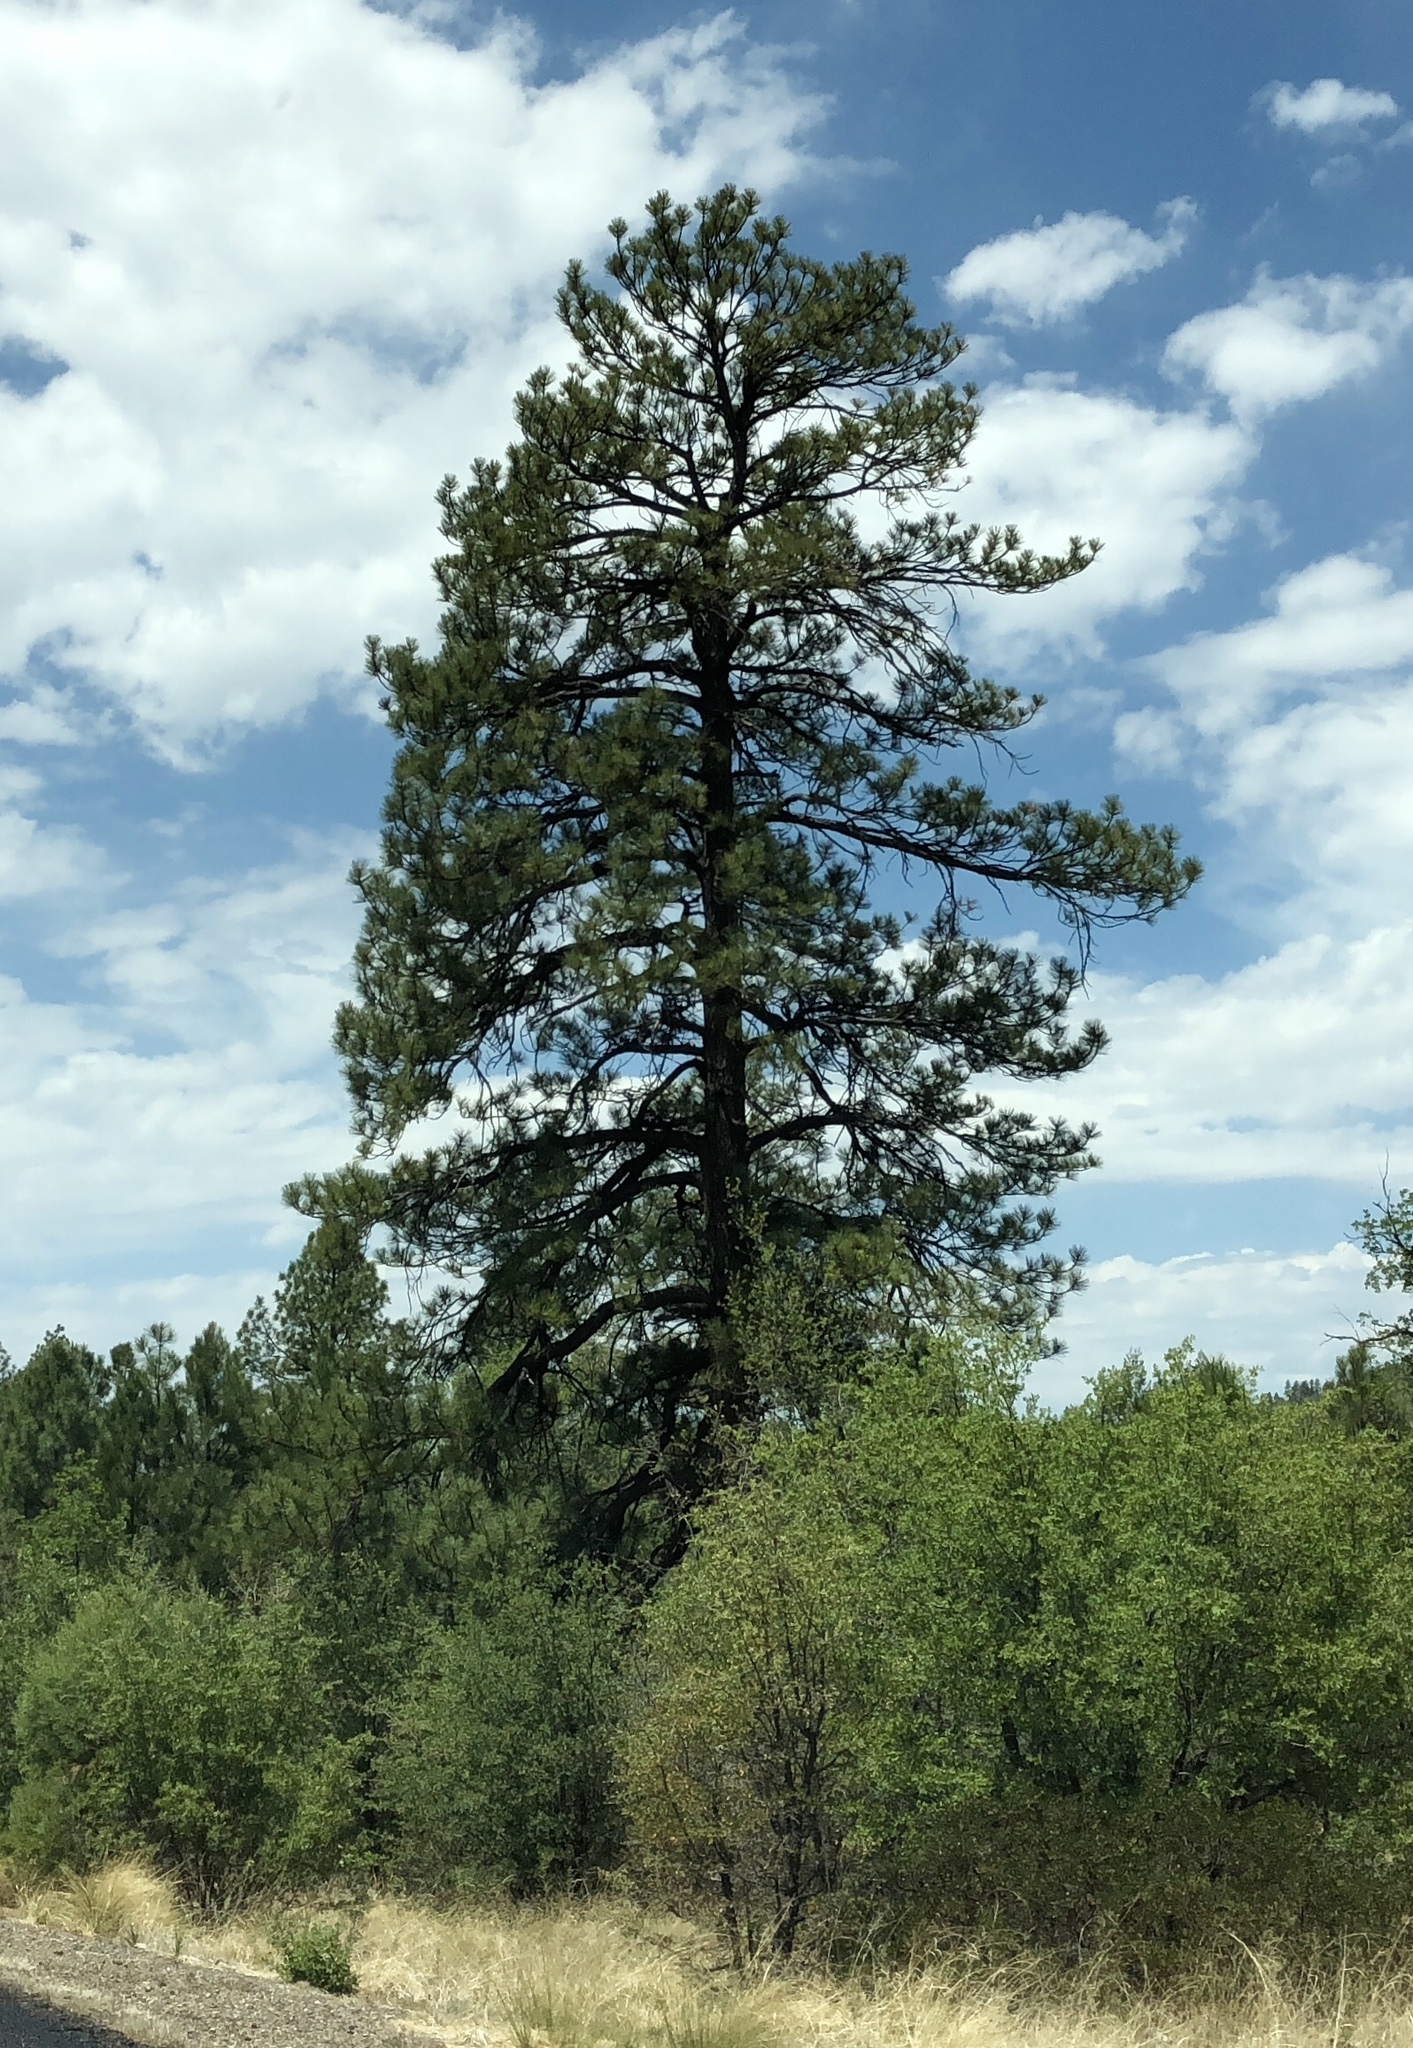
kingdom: Plantae
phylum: Tracheophyta
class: Pinopsida
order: Pinales
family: Pinaceae
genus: Pinus
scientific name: Pinus ponderosa
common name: Western yellow-pine
